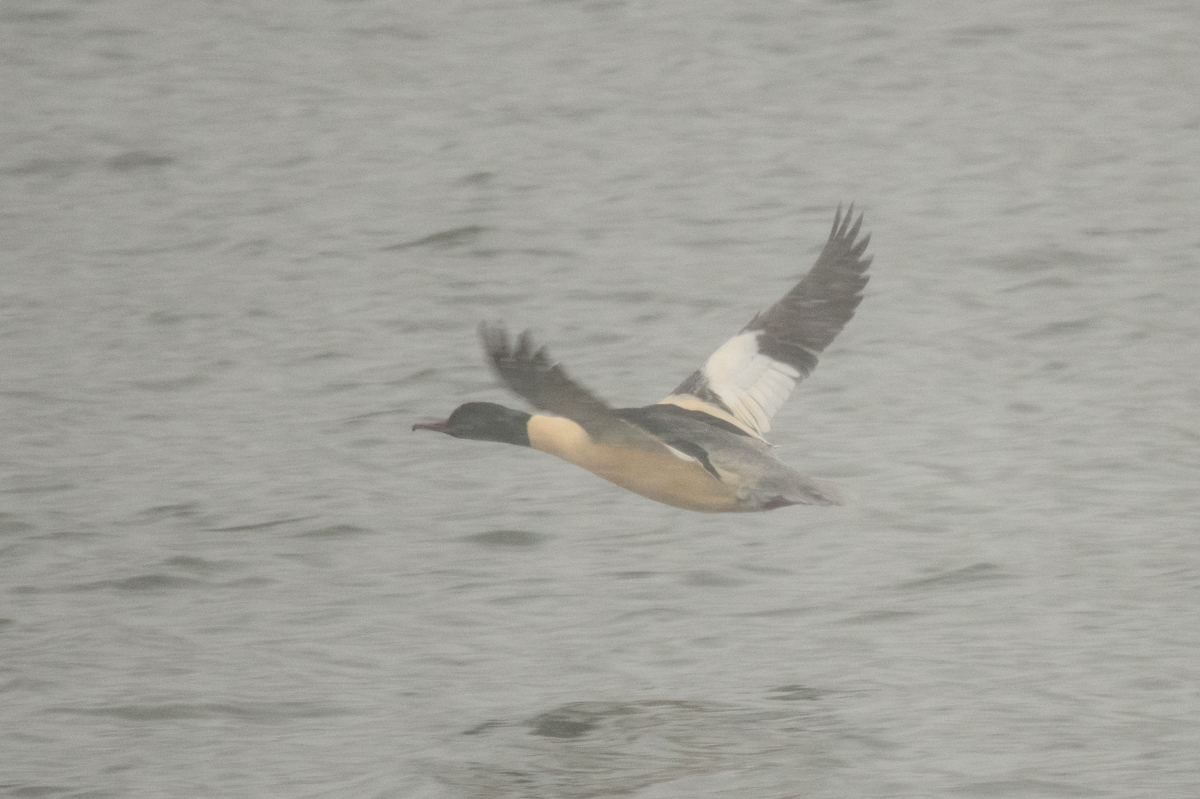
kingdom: Animalia
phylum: Chordata
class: Aves
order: Anseriformes
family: Anatidae
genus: Mergus
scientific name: Mergus merganser
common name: Common merganser
